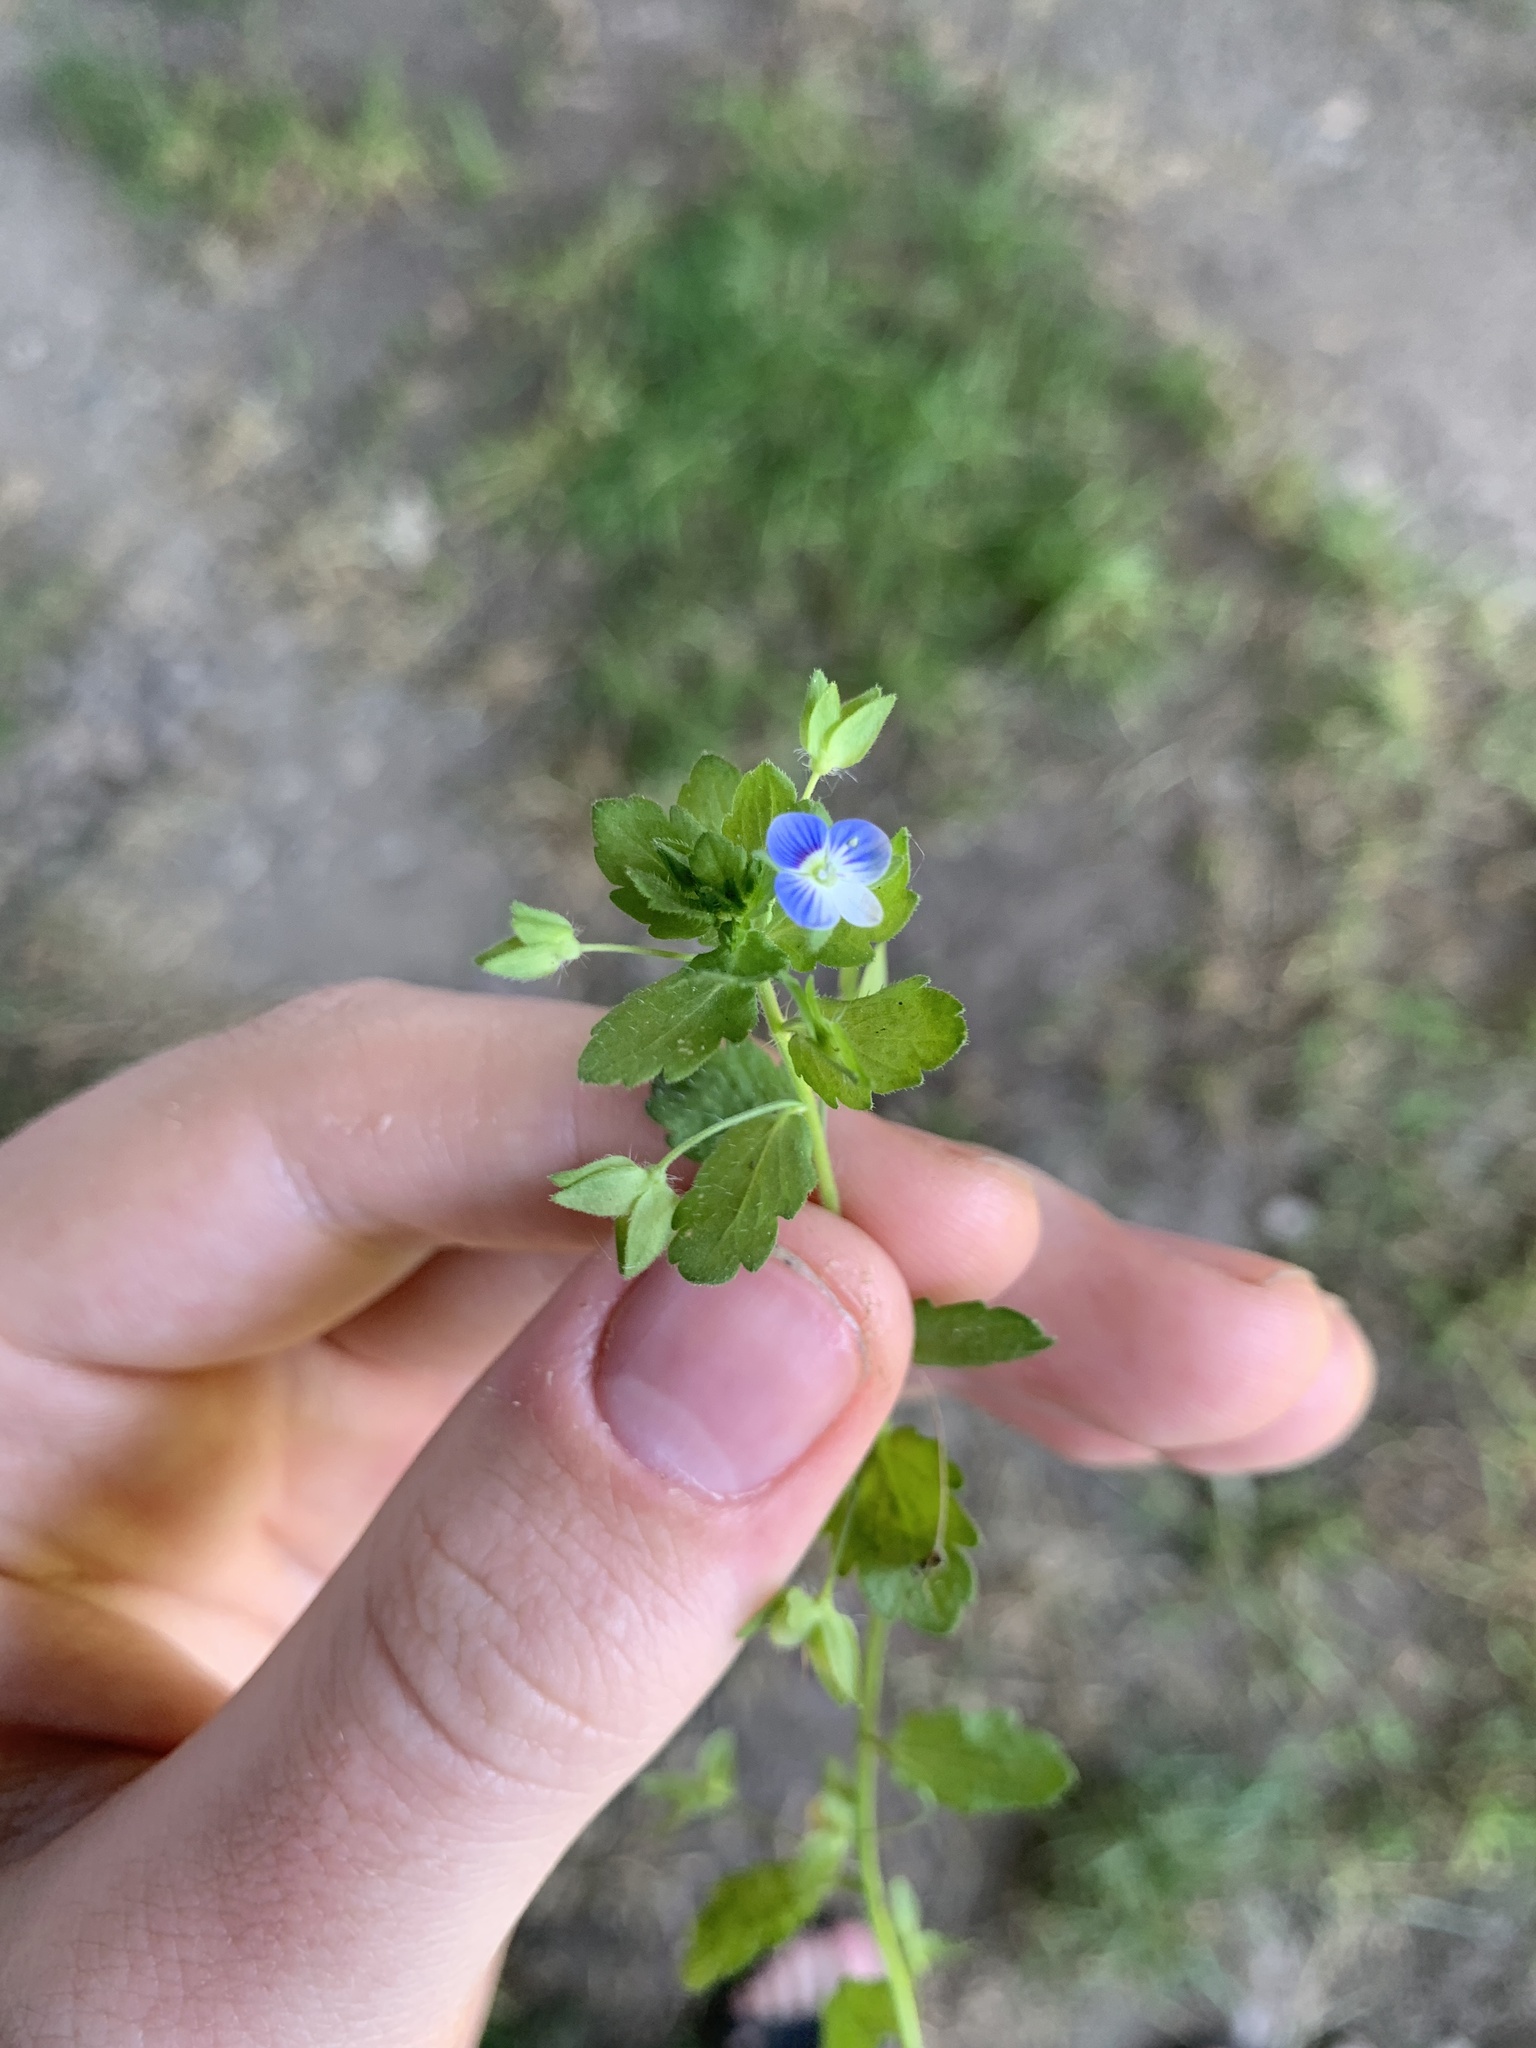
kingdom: Plantae
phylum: Tracheophyta
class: Magnoliopsida
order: Lamiales
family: Plantaginaceae
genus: Veronica
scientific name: Veronica persica
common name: Common field-speedwell
